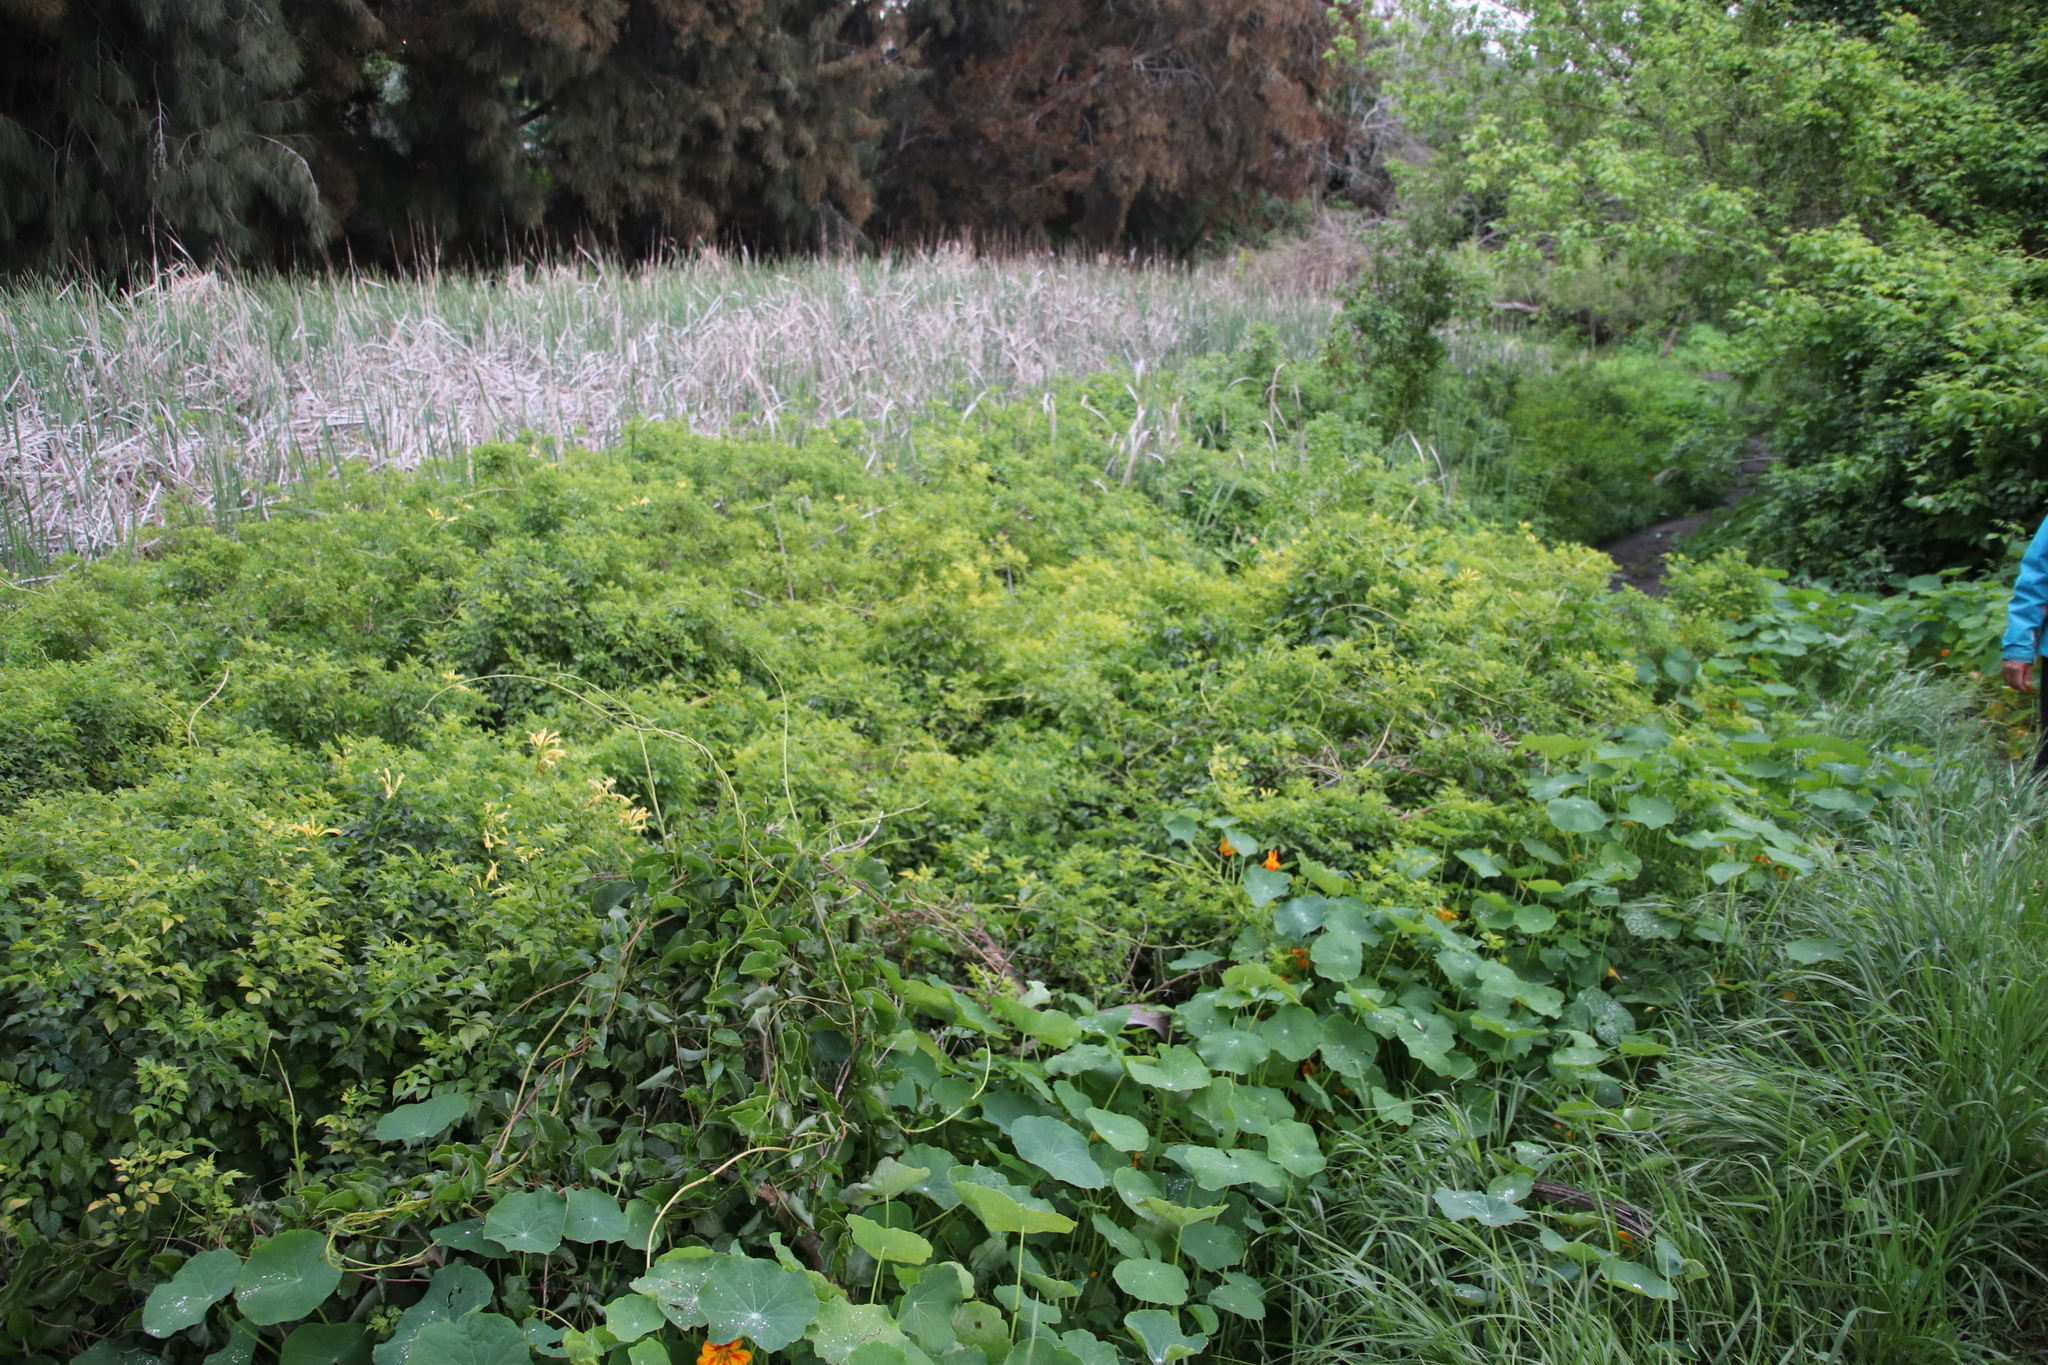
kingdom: Plantae
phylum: Tracheophyta
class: Magnoliopsida
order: Lamiales
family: Bignoniaceae
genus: Tecomaria
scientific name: Tecomaria capensis
